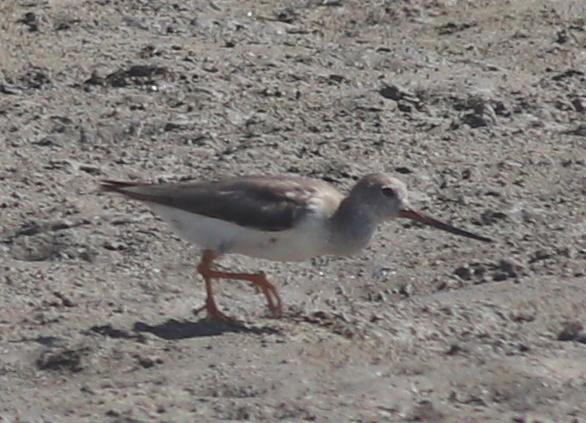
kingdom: Animalia
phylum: Chordata
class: Aves
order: Charadriiformes
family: Scolopacidae
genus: Xenus
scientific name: Xenus cinereus
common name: Terek sandpiper
